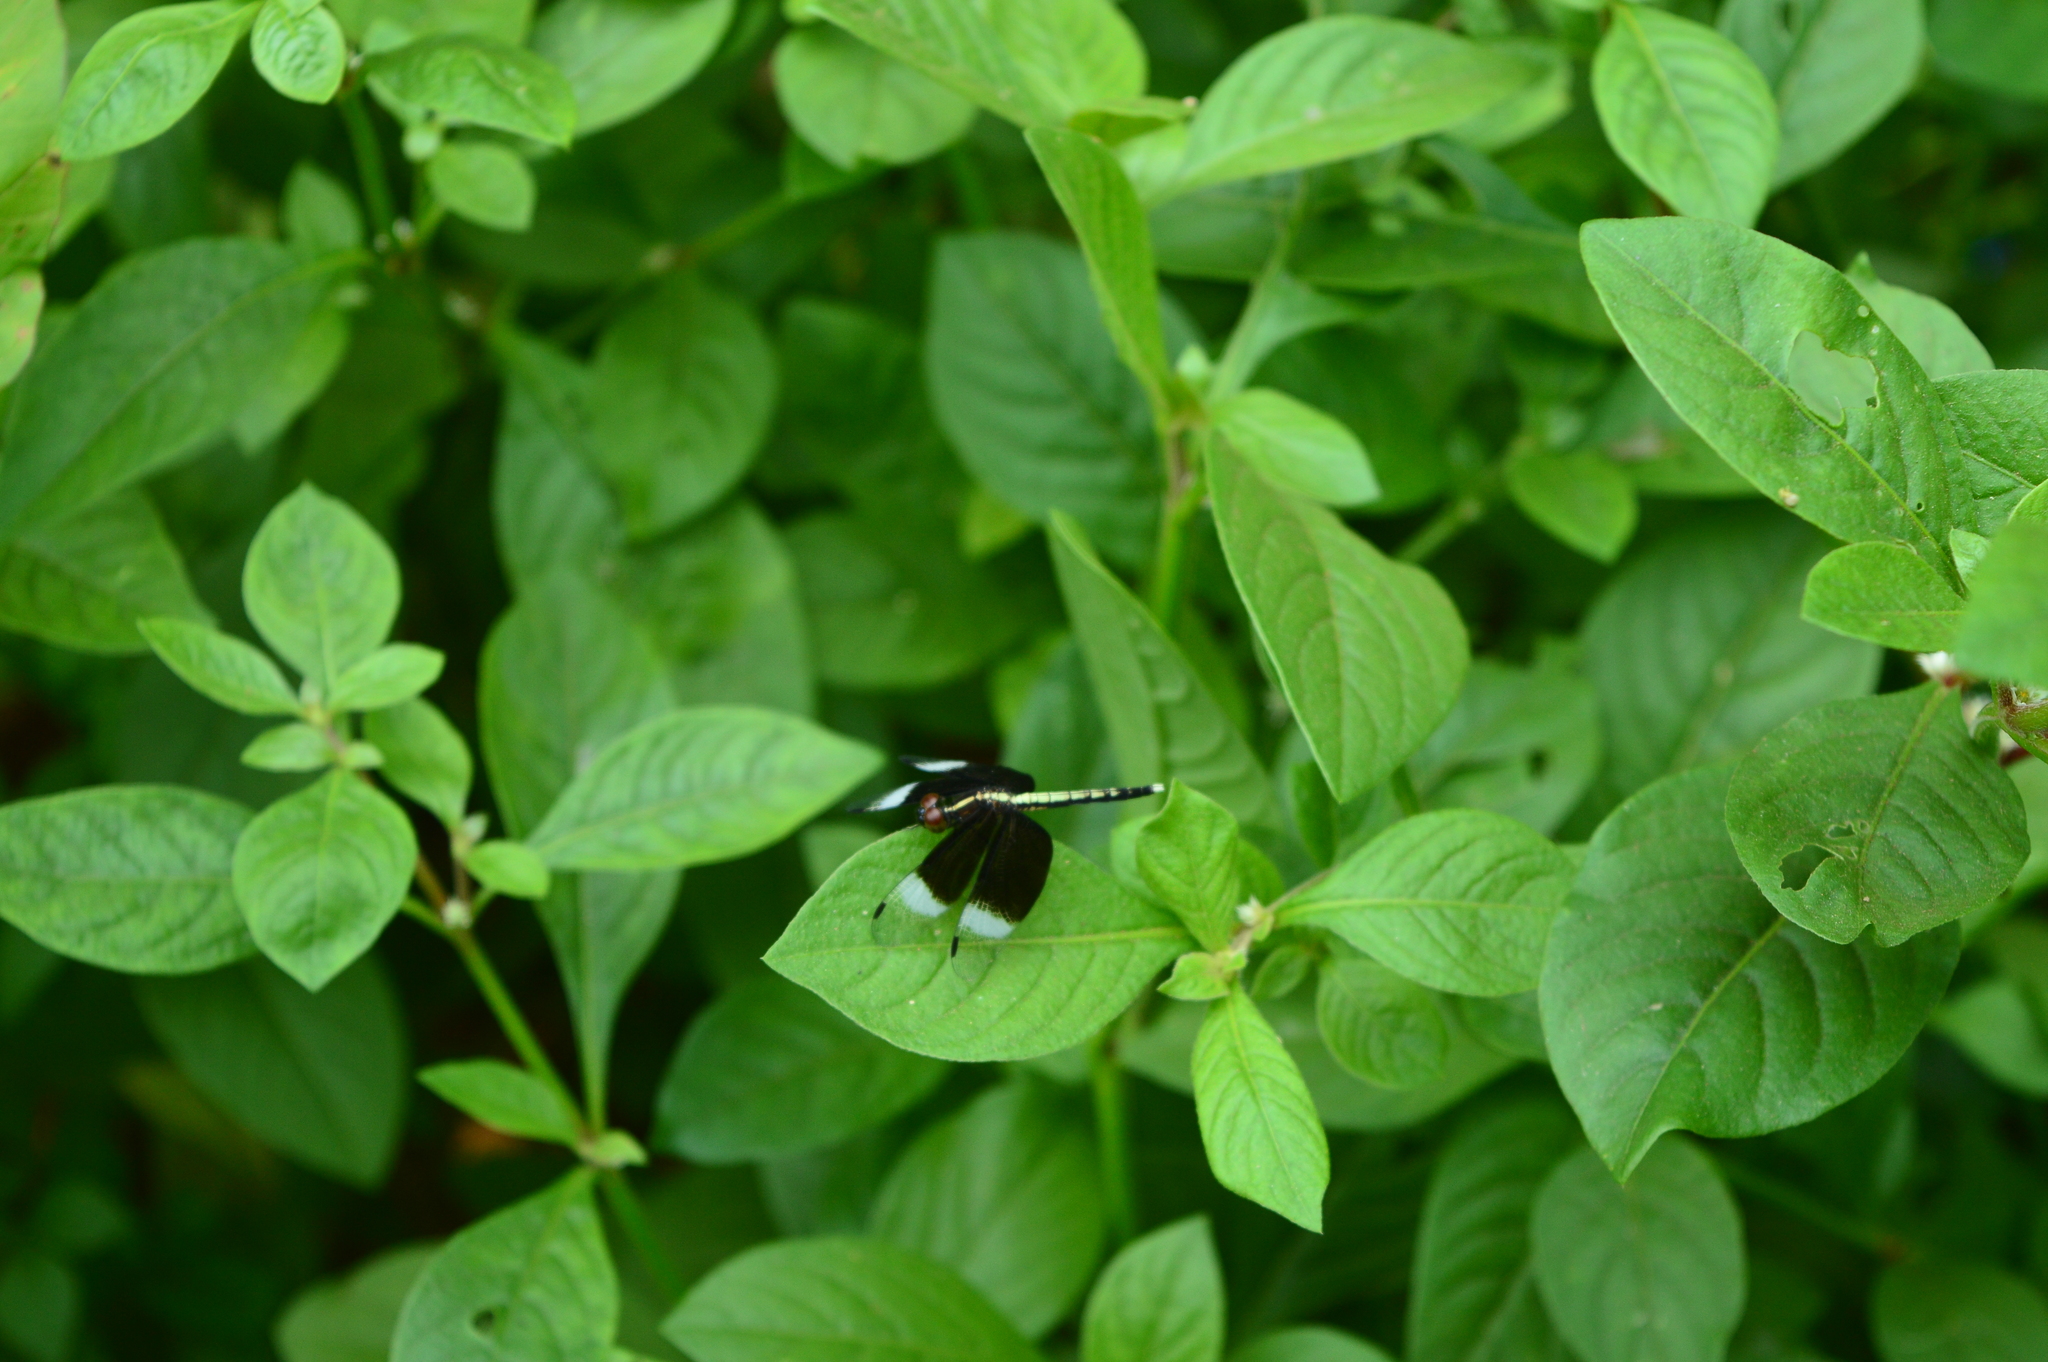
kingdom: Animalia
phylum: Arthropoda
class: Insecta
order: Odonata
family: Libellulidae
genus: Neurothemis
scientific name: Neurothemis tullia
